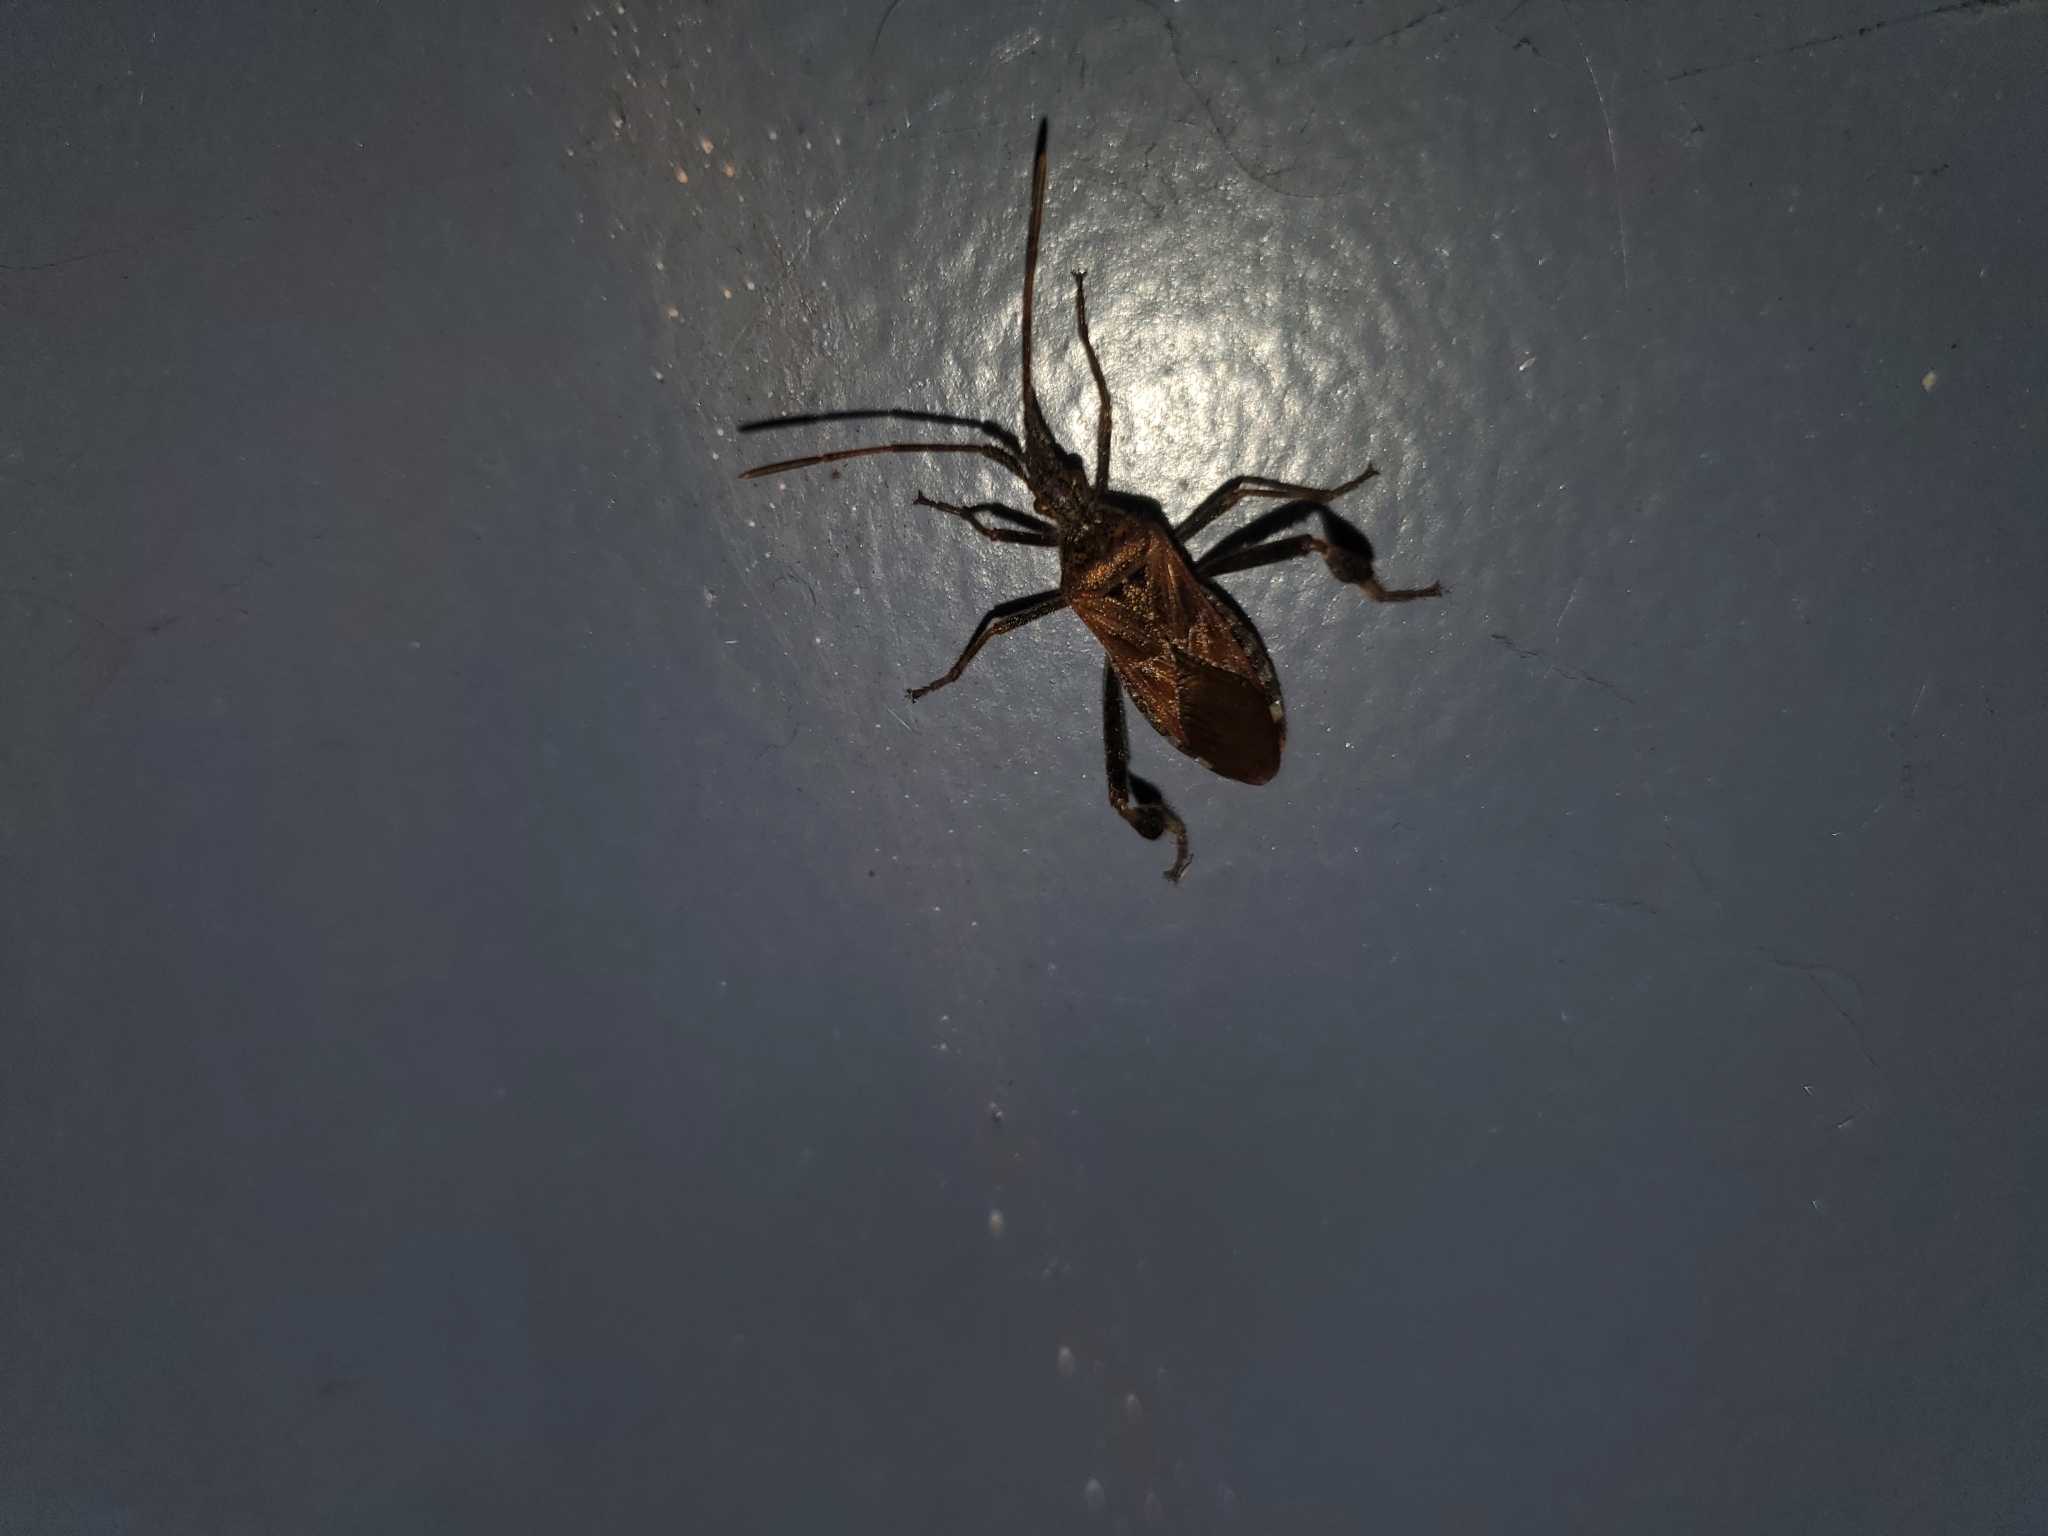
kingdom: Animalia
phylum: Arthropoda
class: Insecta
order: Hemiptera
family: Coreidae
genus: Leptoglossus
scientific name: Leptoglossus occidentalis
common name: Western conifer-seed bug
